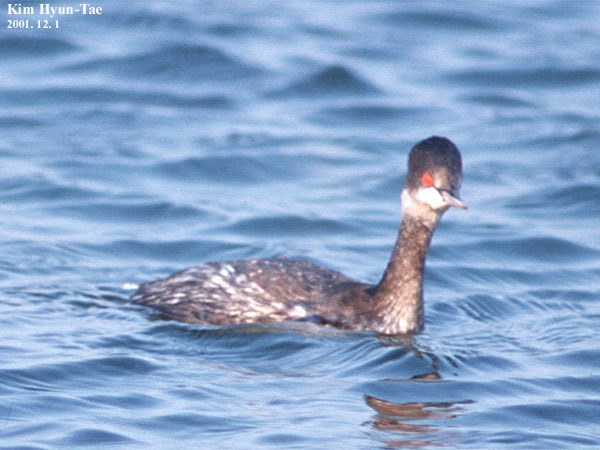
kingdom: Animalia
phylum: Chordata
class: Aves
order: Podicipediformes
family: Podicipedidae
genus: Podiceps
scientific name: Podiceps nigricollis
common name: Black-necked grebe
